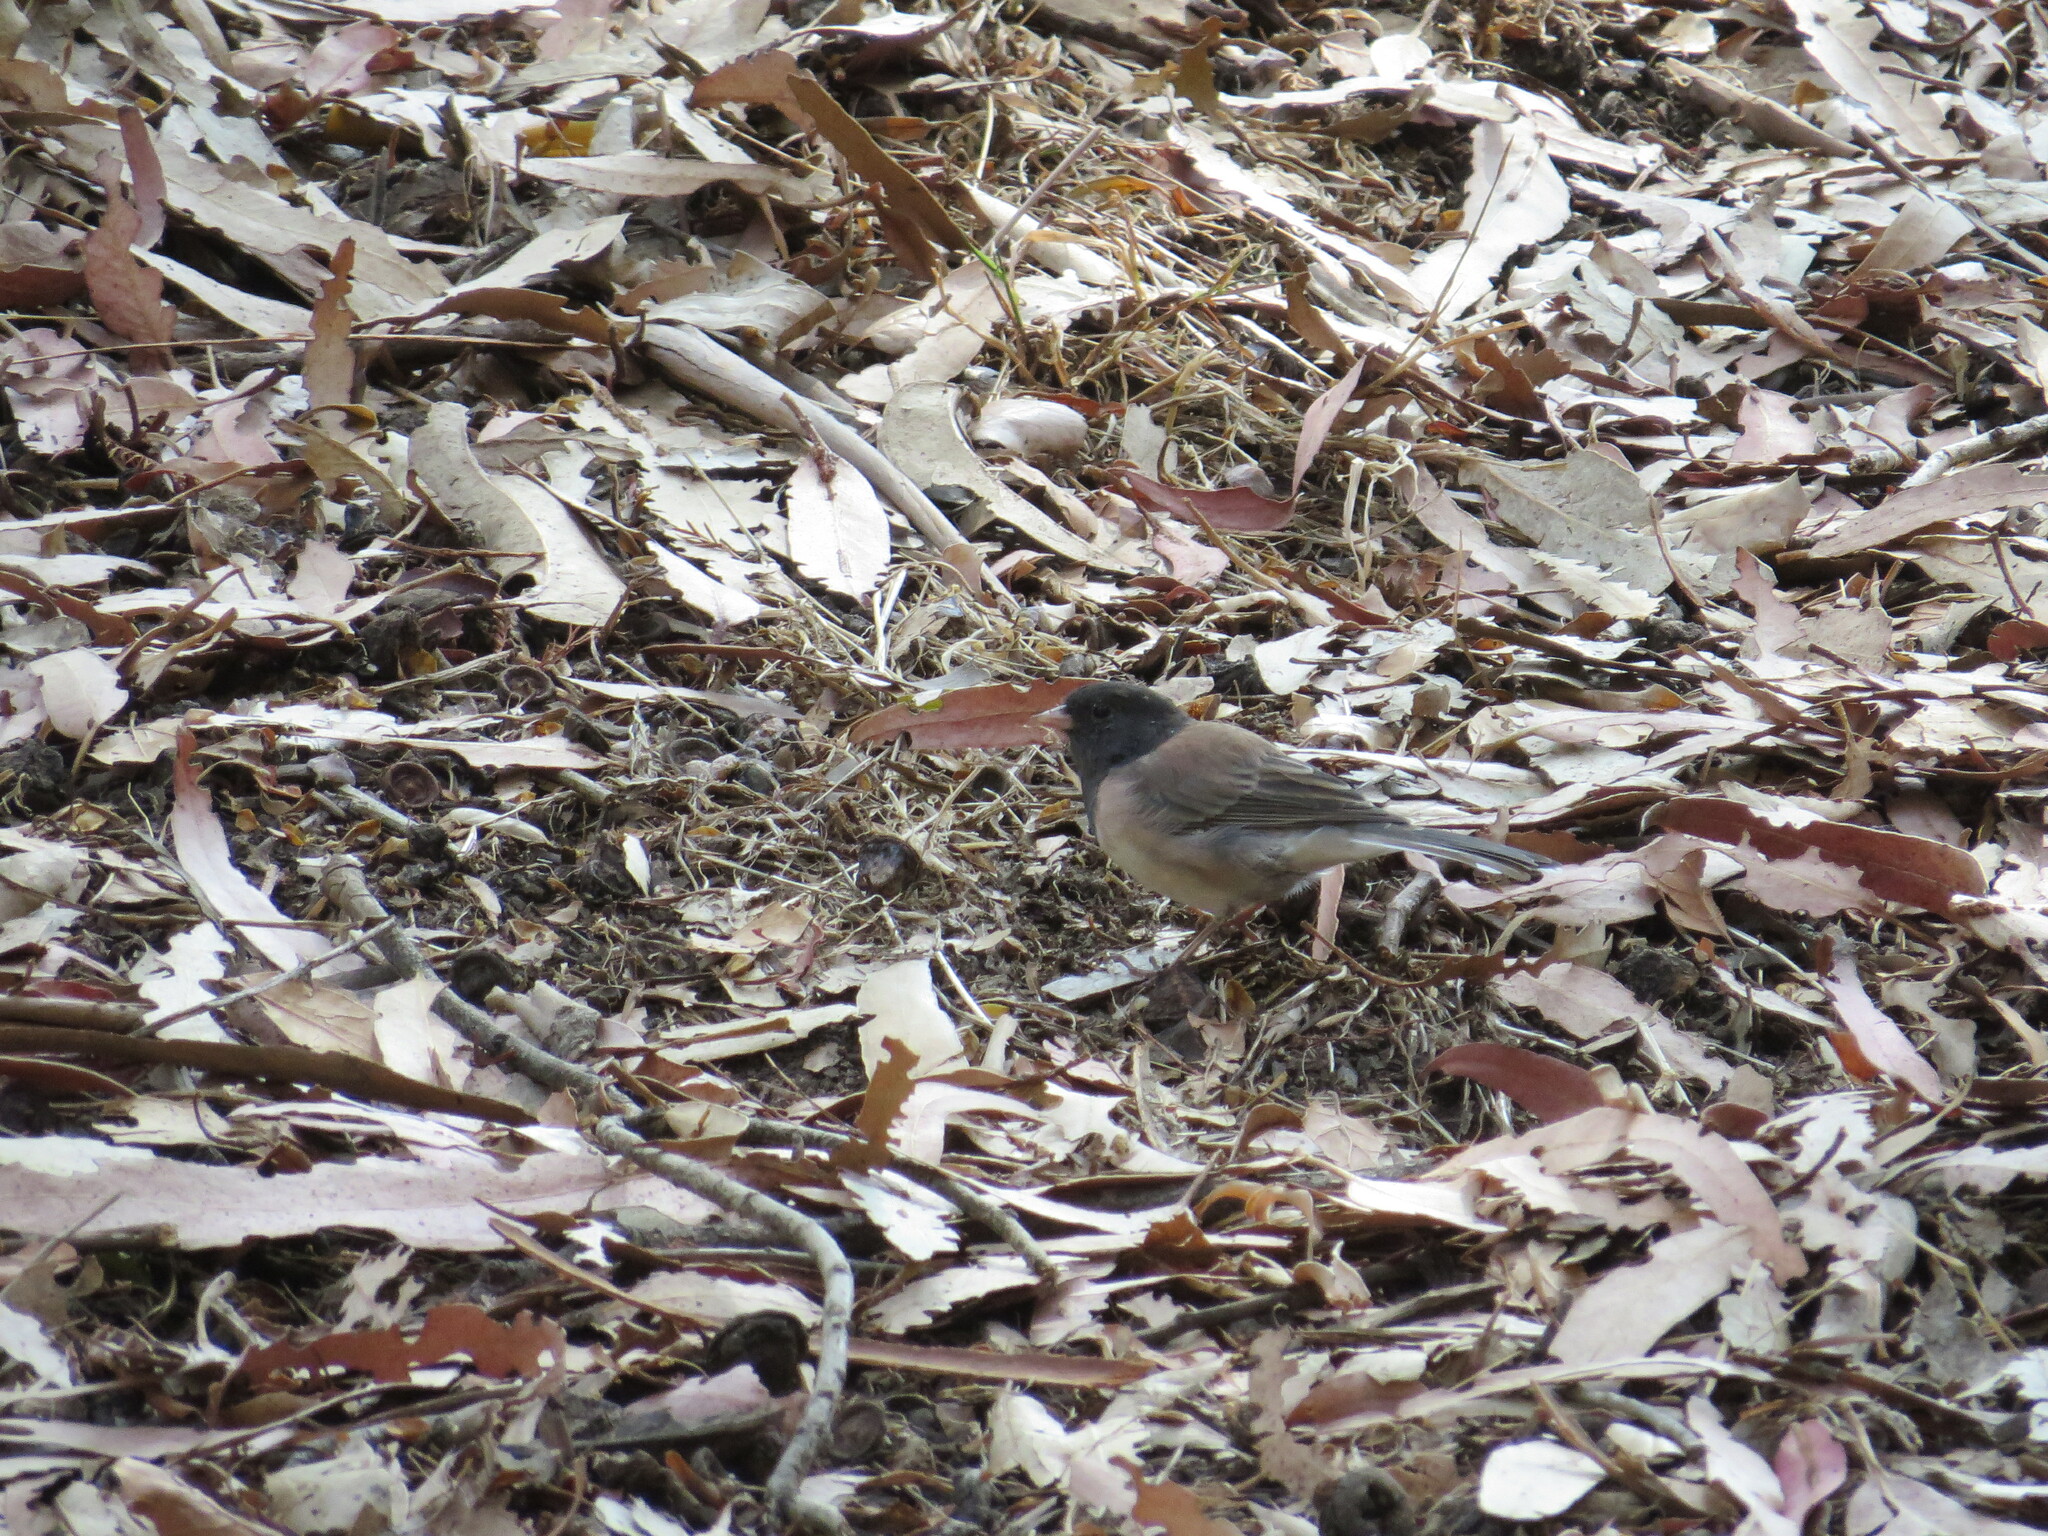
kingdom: Animalia
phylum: Chordata
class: Aves
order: Passeriformes
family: Passerellidae
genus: Junco
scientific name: Junco hyemalis
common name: Dark-eyed junco
